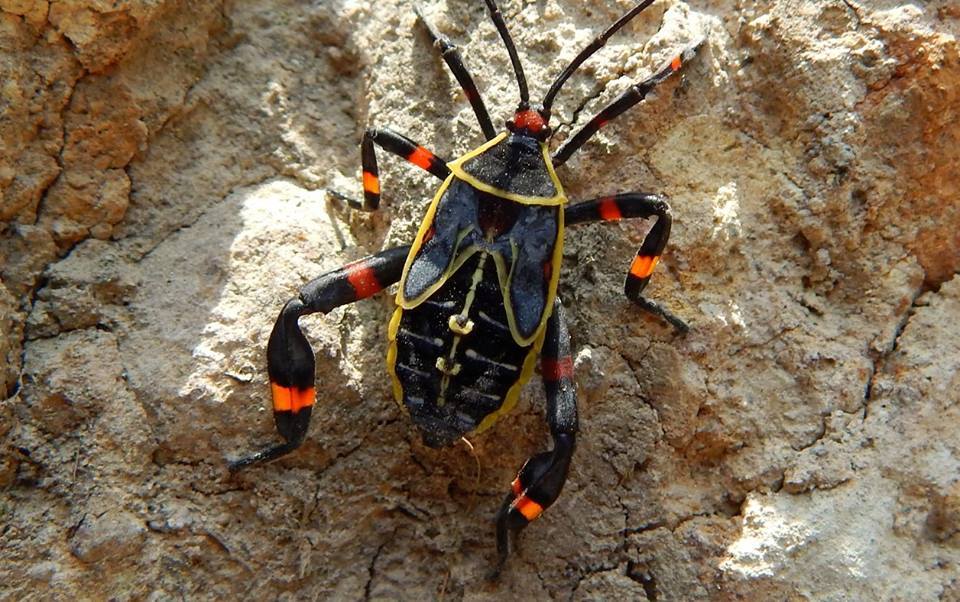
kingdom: Animalia
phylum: Arthropoda
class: Insecta
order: Hemiptera
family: Coreidae
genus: Thasus
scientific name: Thasus acutangulus
